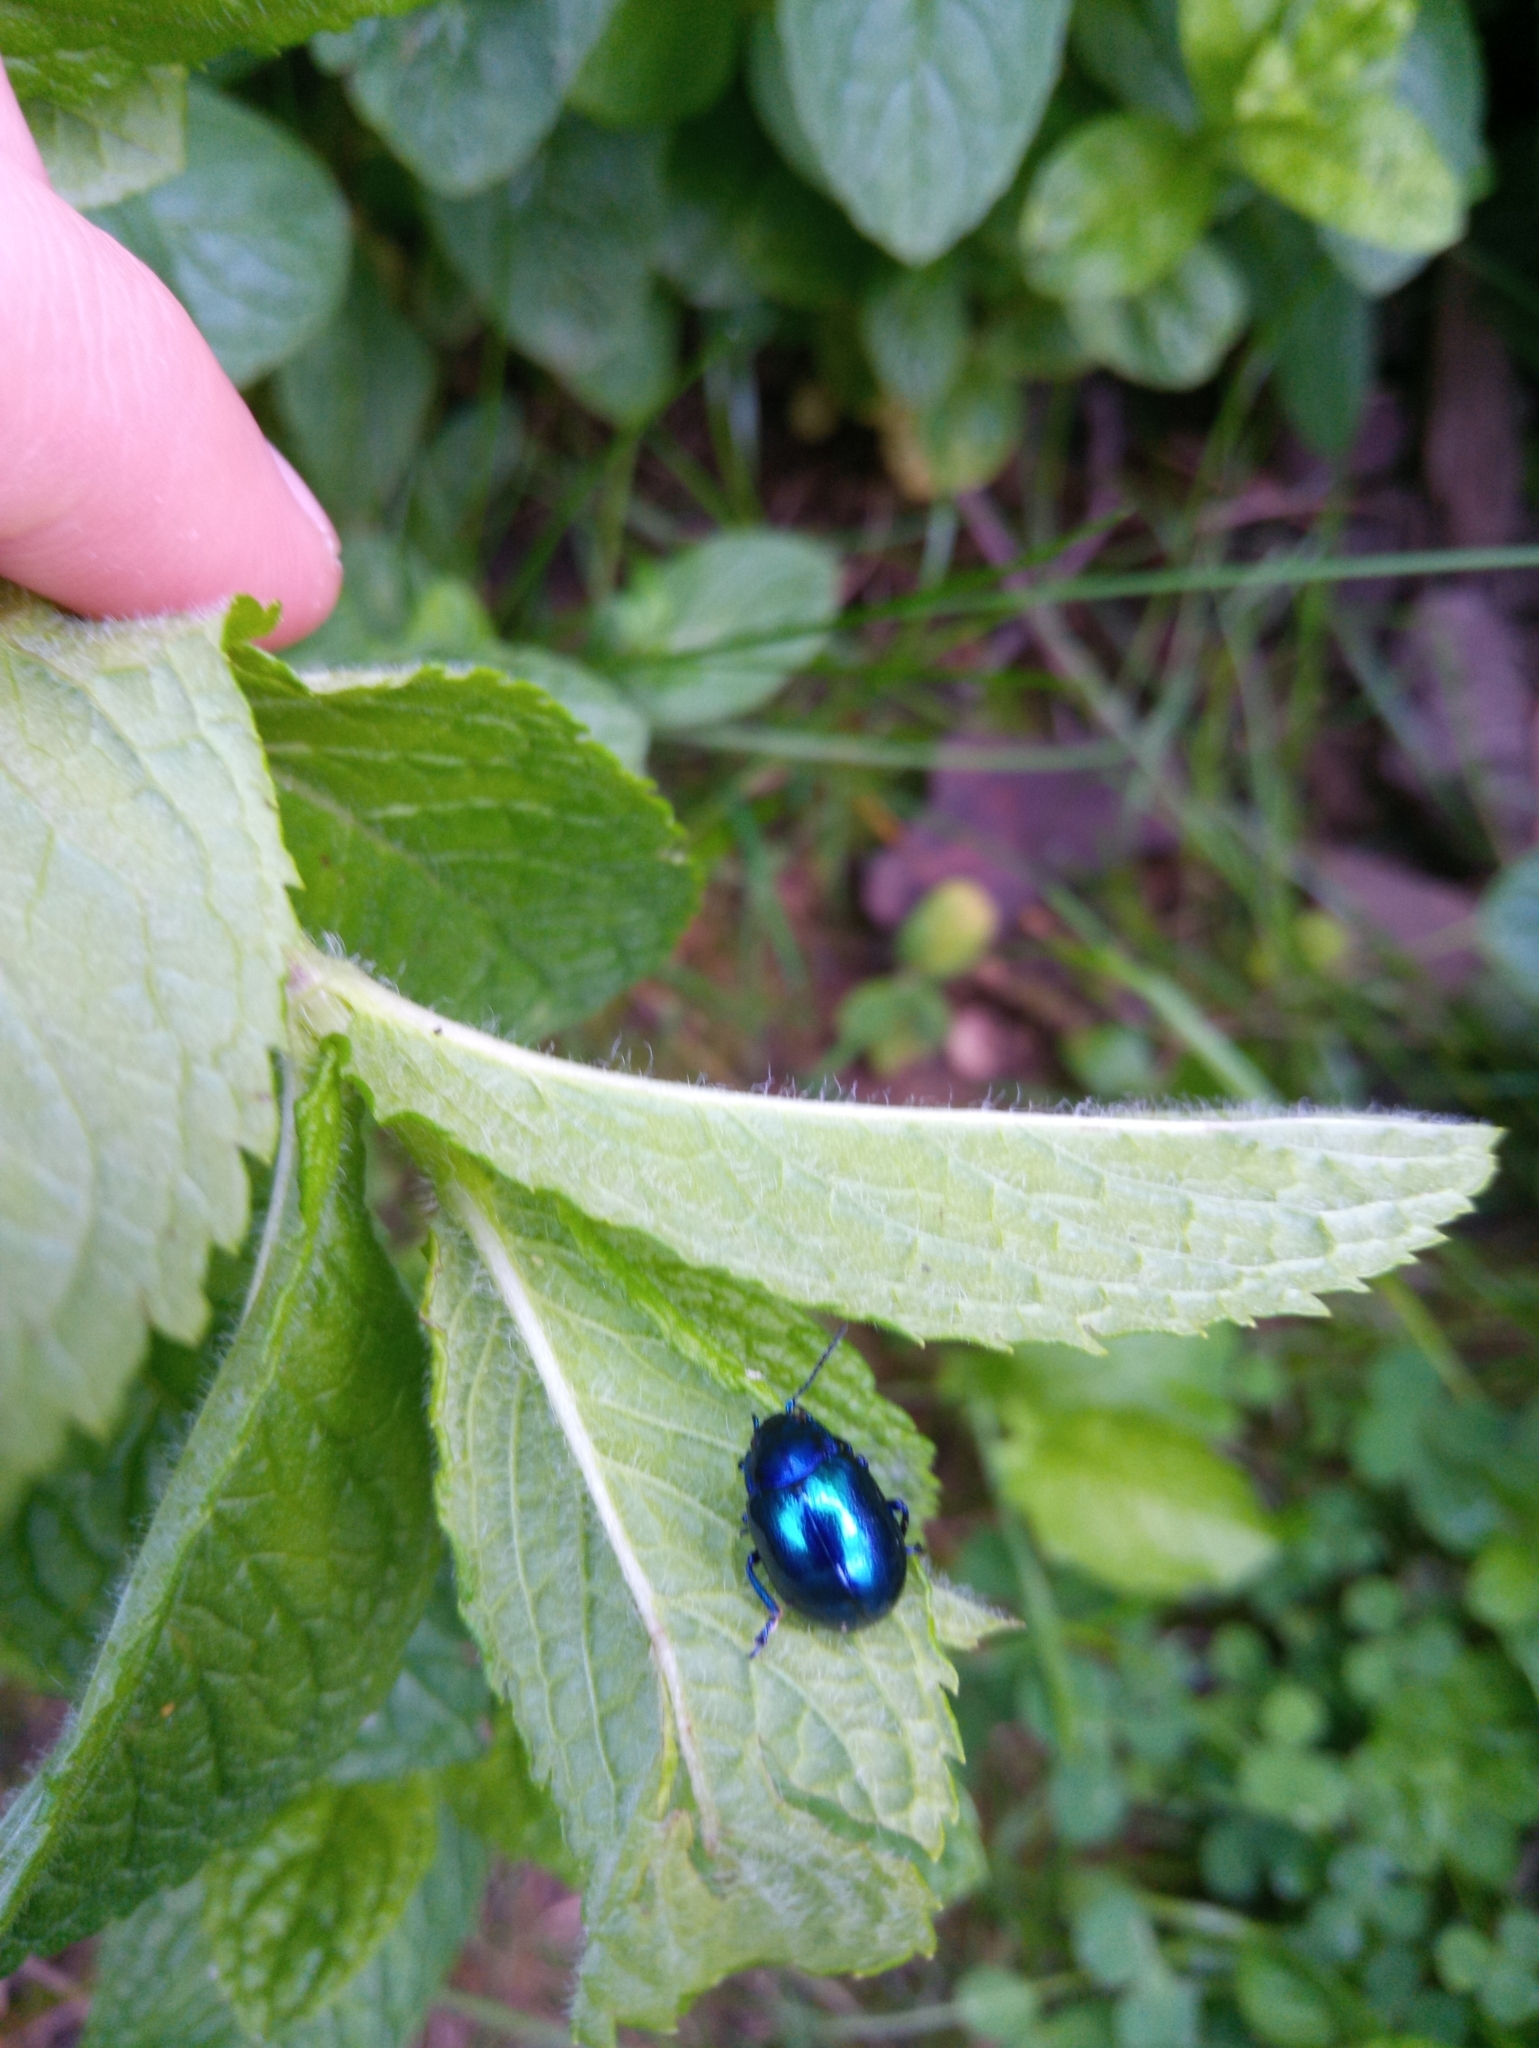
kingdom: Animalia
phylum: Arthropoda
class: Insecta
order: Coleoptera
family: Chrysomelidae
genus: Chrysolina
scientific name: Chrysolina coerulans
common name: Blue mint beetle
